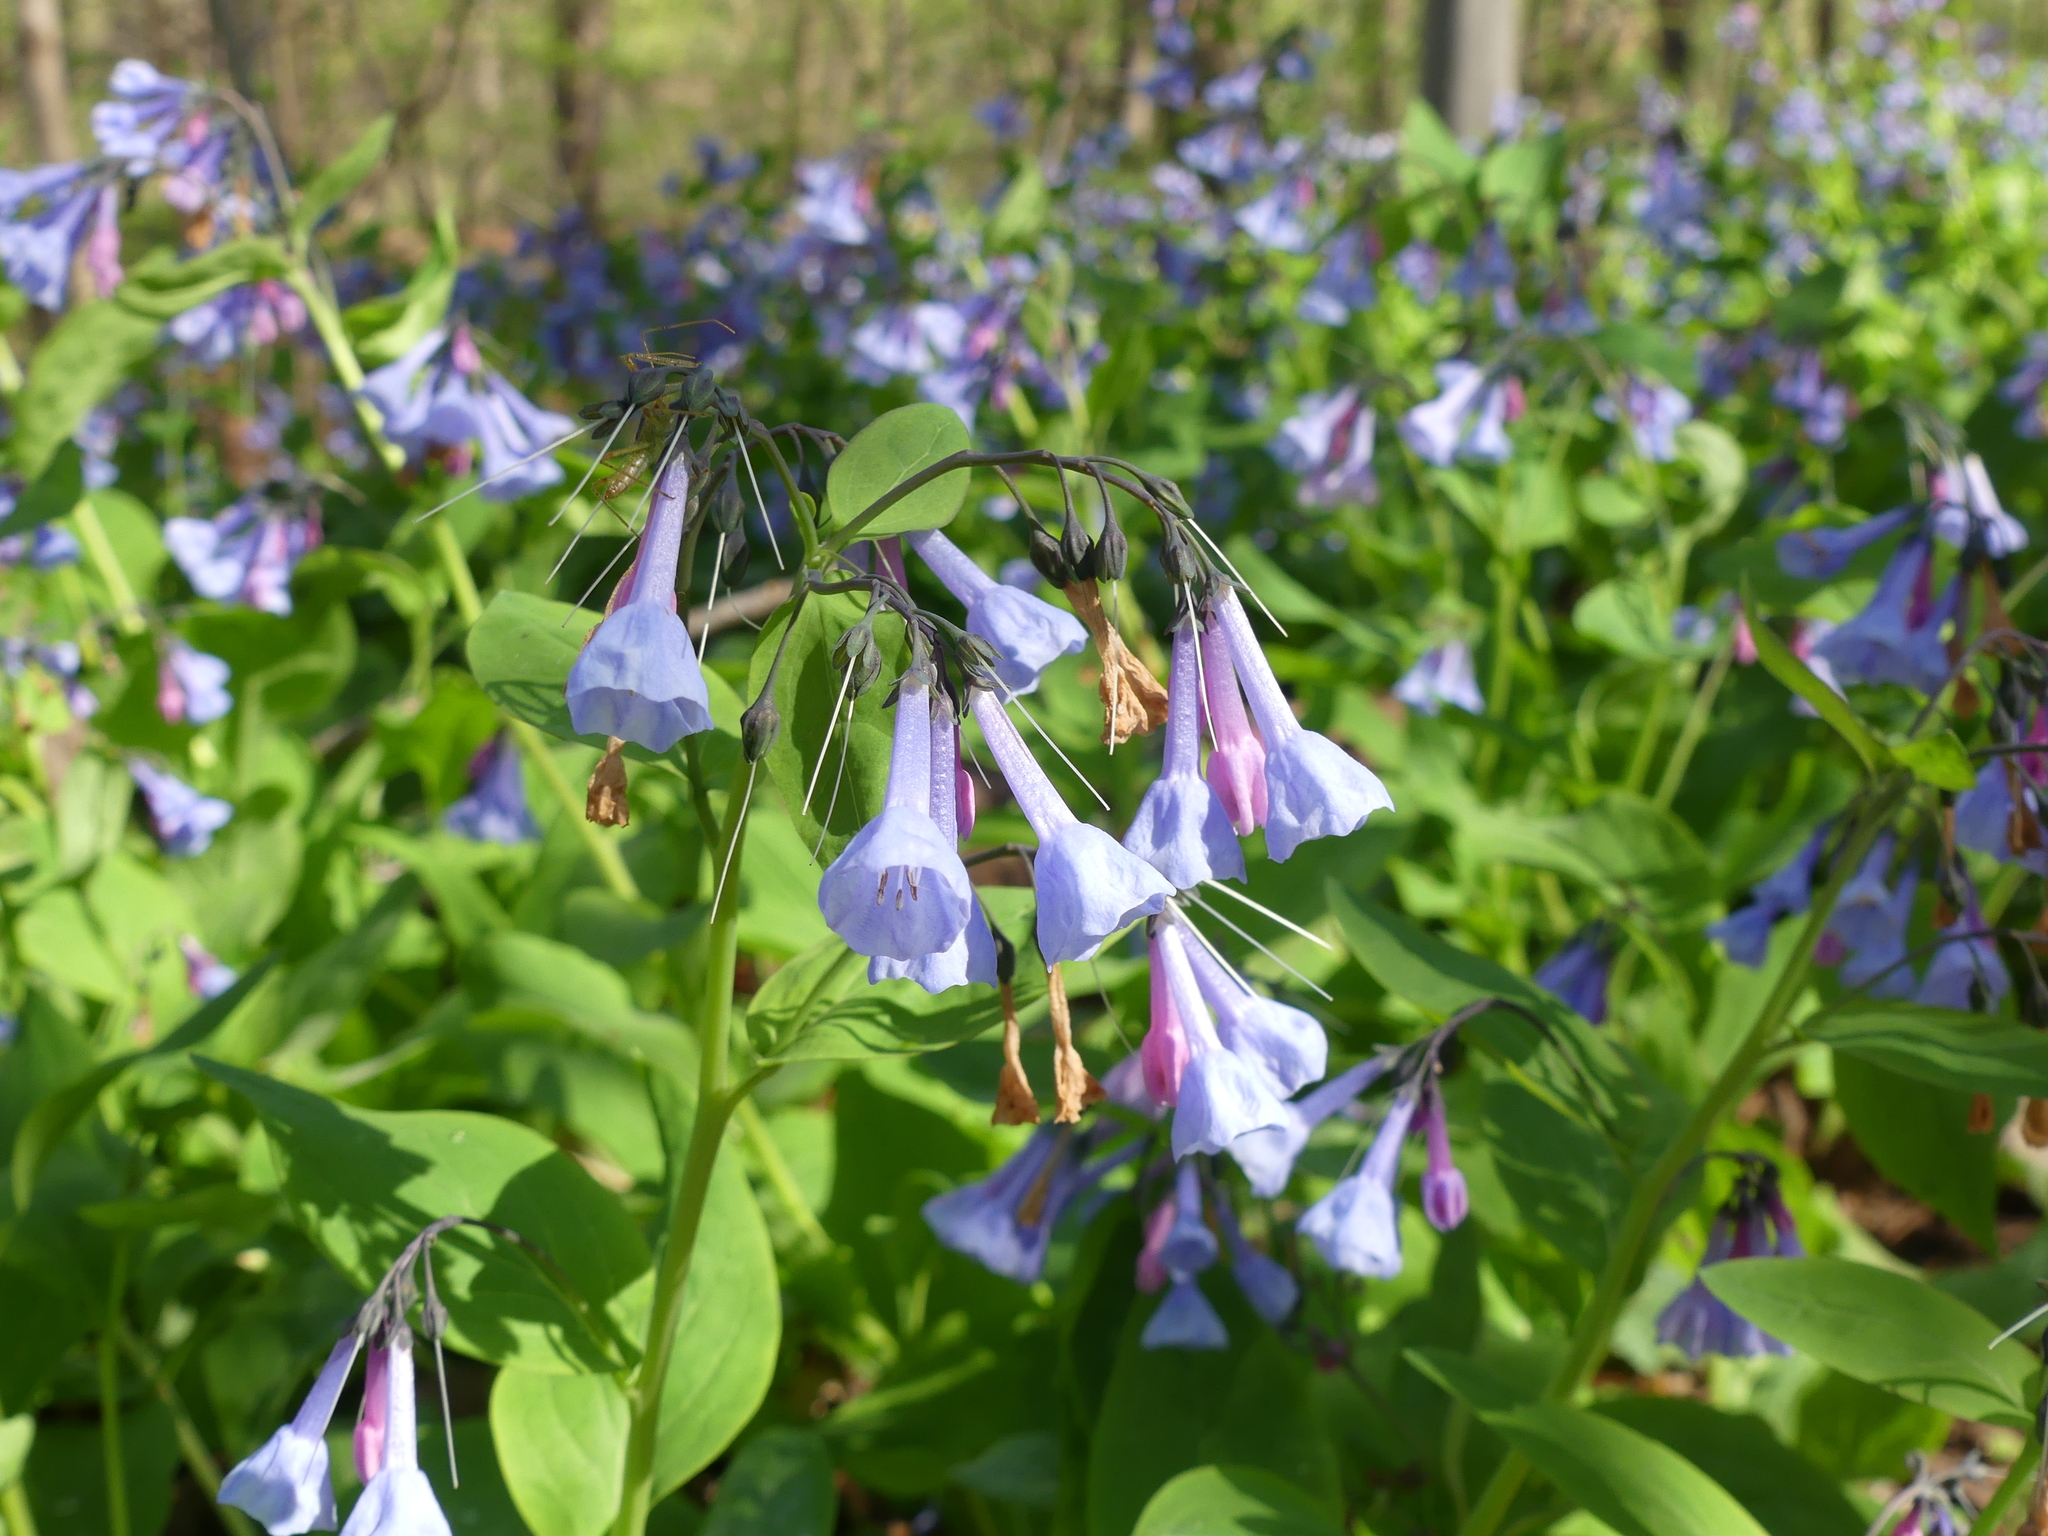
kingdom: Plantae
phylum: Tracheophyta
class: Magnoliopsida
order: Boraginales
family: Boraginaceae
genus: Mertensia
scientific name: Mertensia virginica
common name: Virginia bluebells
